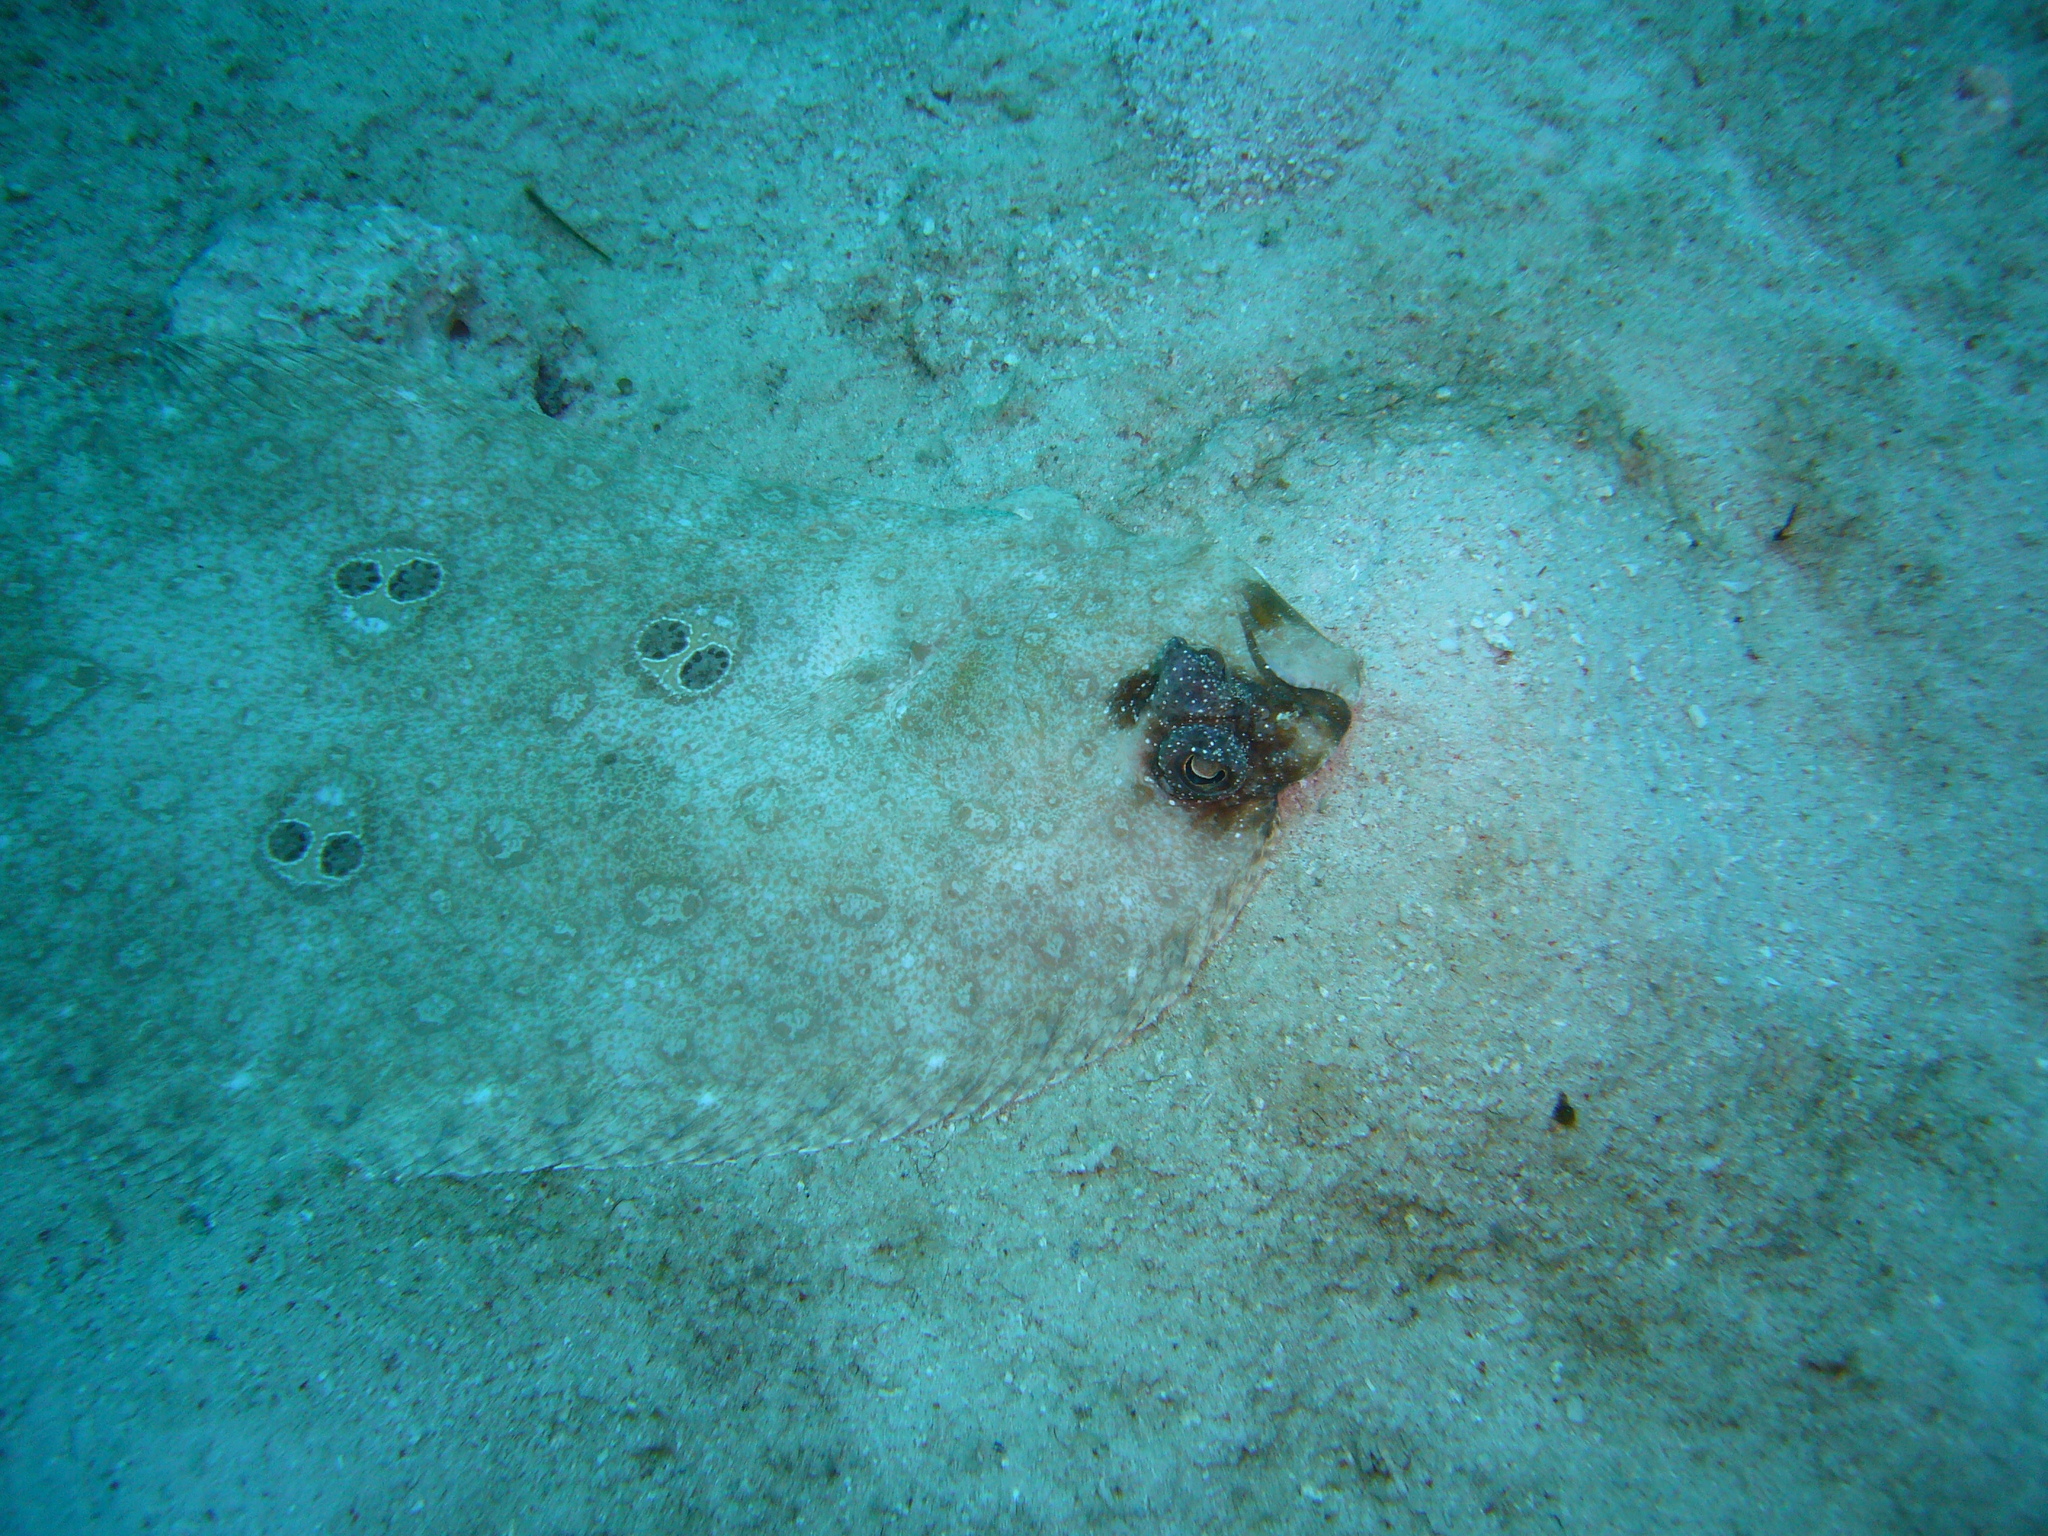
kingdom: Animalia
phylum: Chordata
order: Pleuronectiformes
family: Paralichthyidae
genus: Pseudorhombus
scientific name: Pseudorhombus dupliciocellatus
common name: Ocellated flounder
